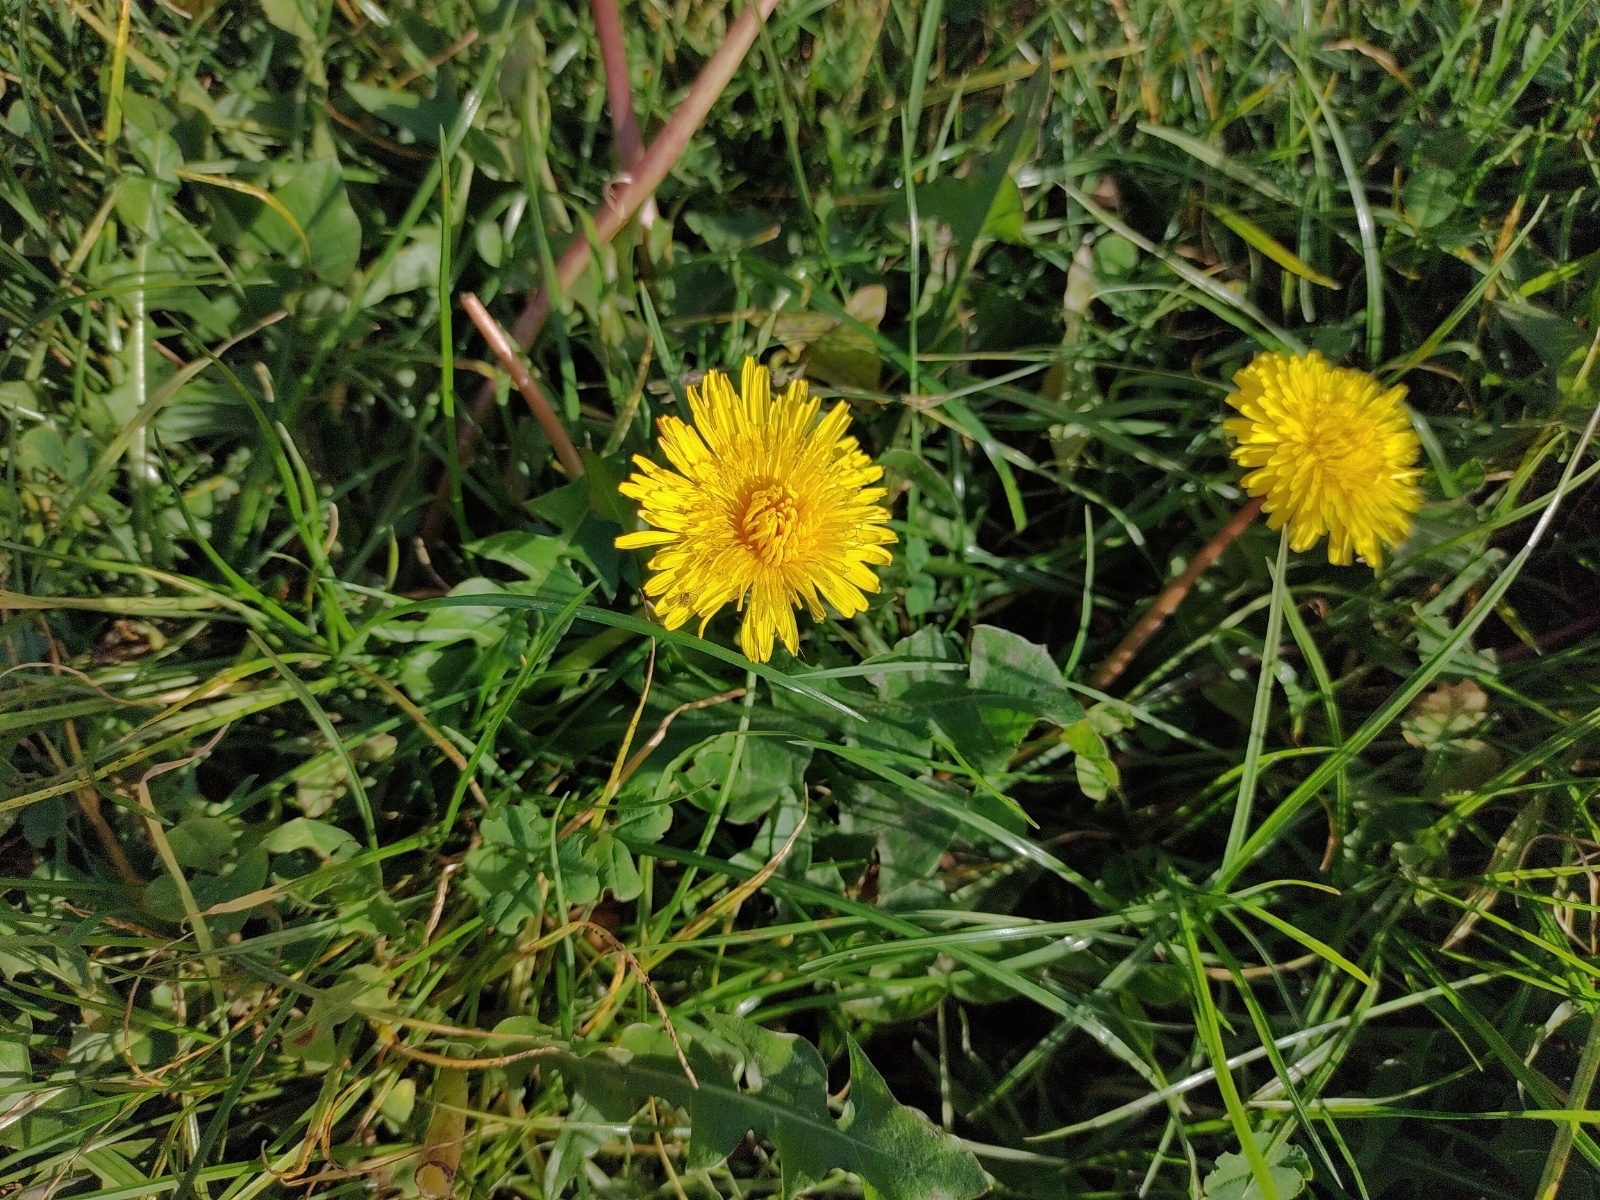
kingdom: Plantae
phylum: Tracheophyta
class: Magnoliopsida
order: Asterales
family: Asteraceae
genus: Taraxacum
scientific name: Taraxacum officinale
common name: Common dandelion
